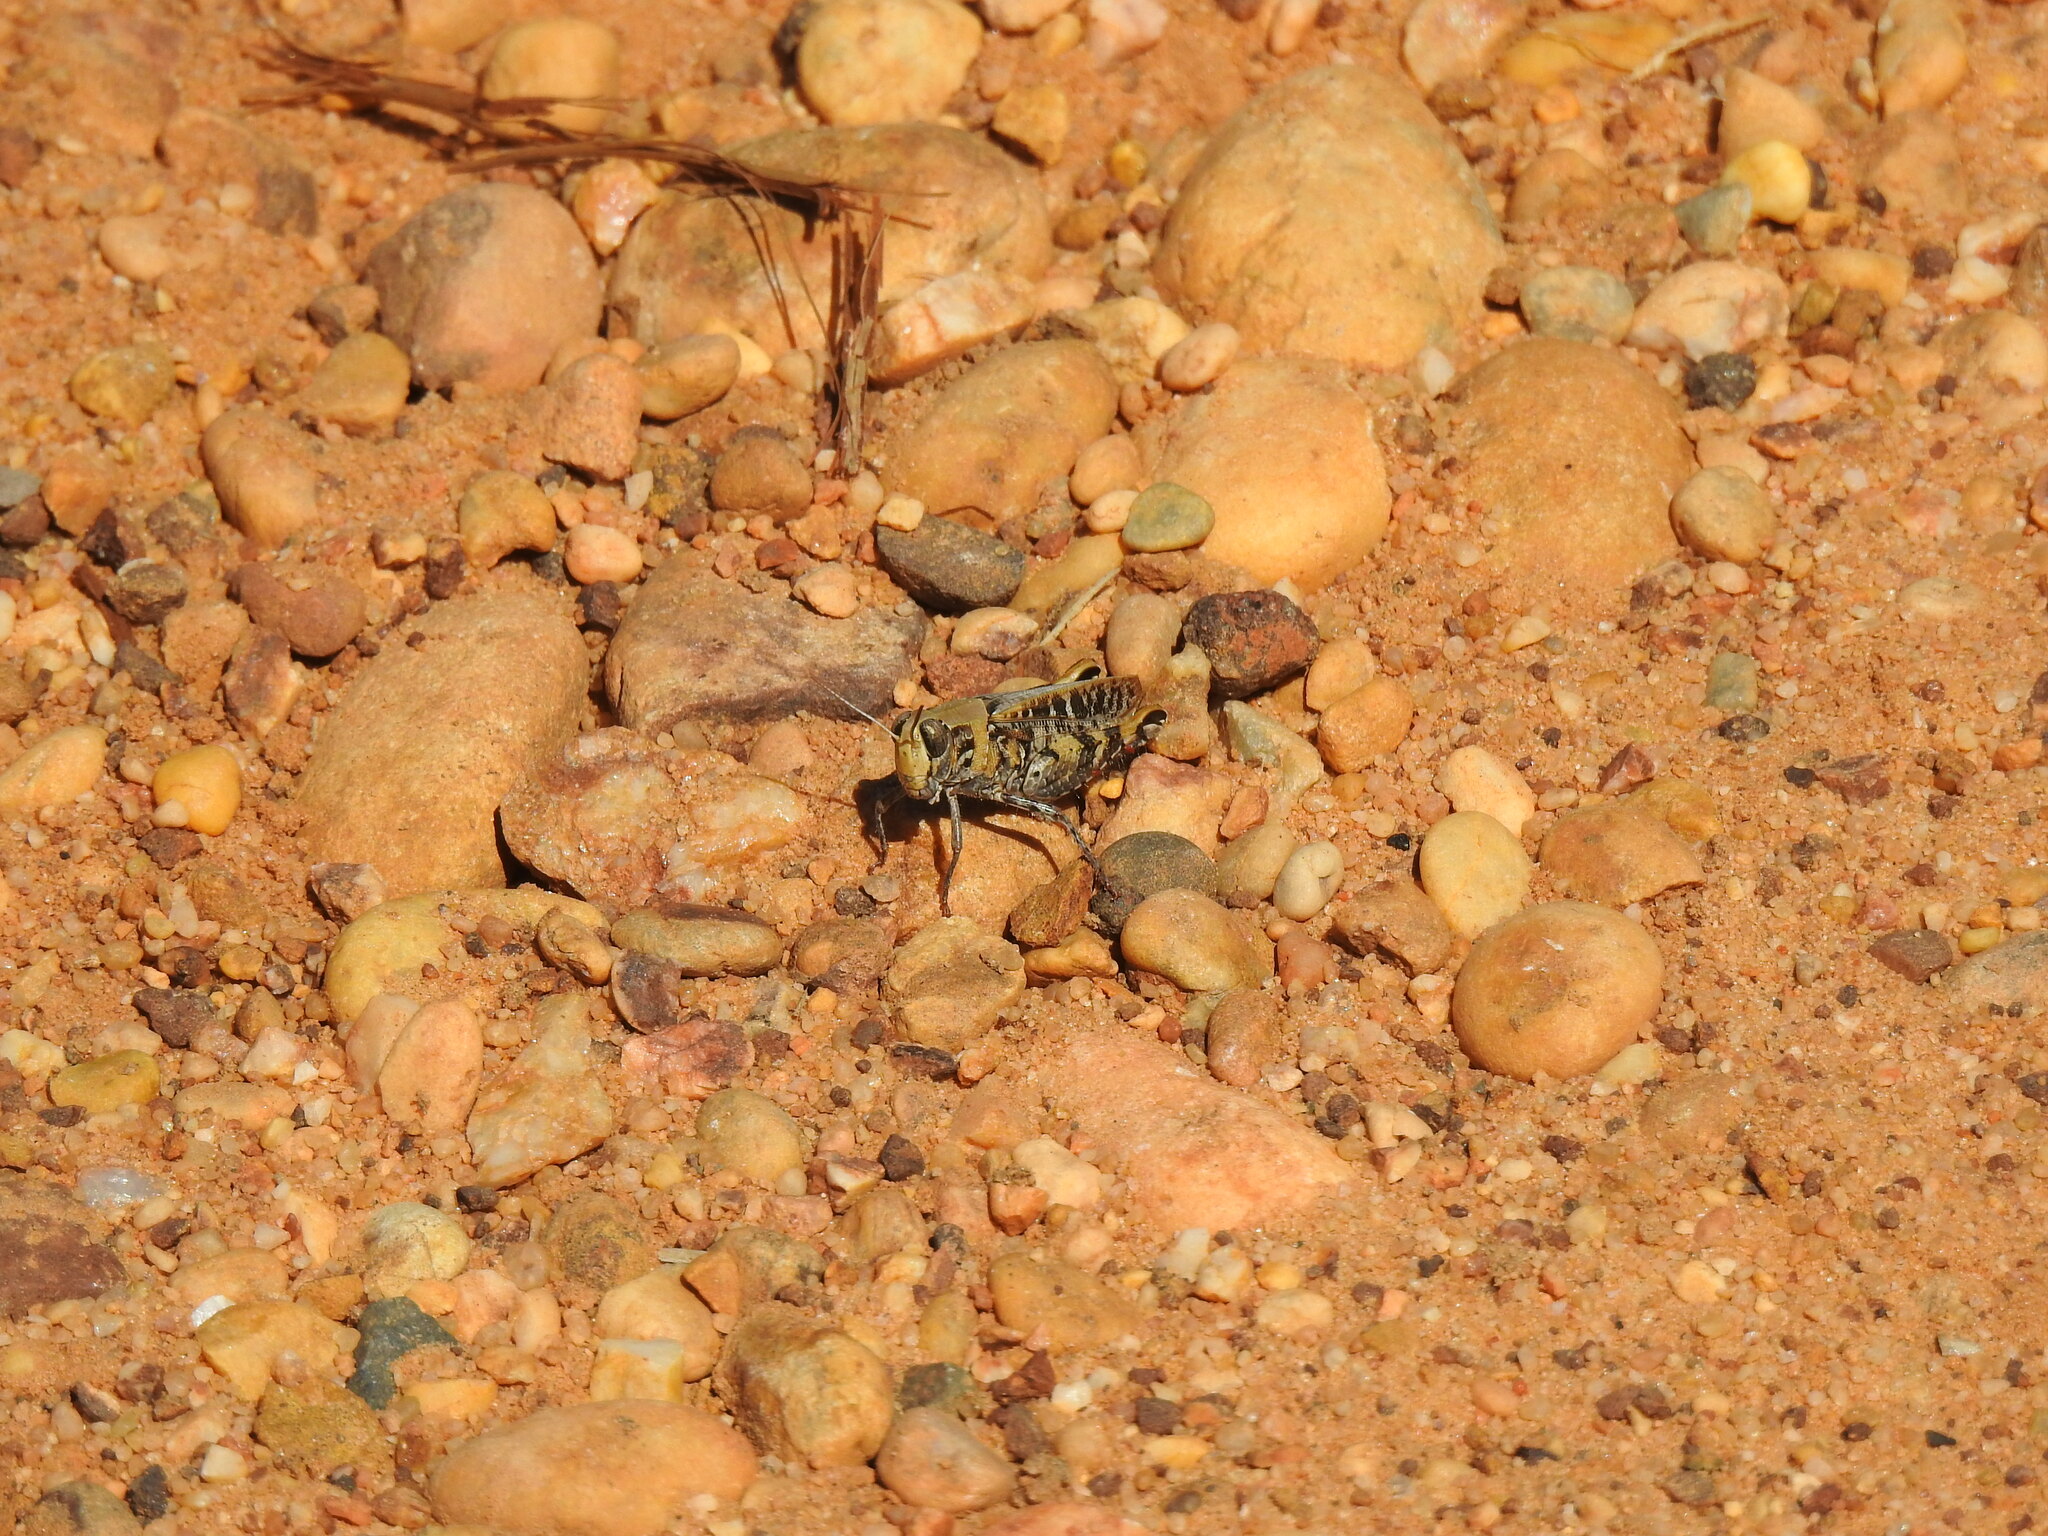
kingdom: Animalia
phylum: Arthropoda
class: Insecta
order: Orthoptera
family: Acrididae
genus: Calliptamus
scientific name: Calliptamus barbarus
